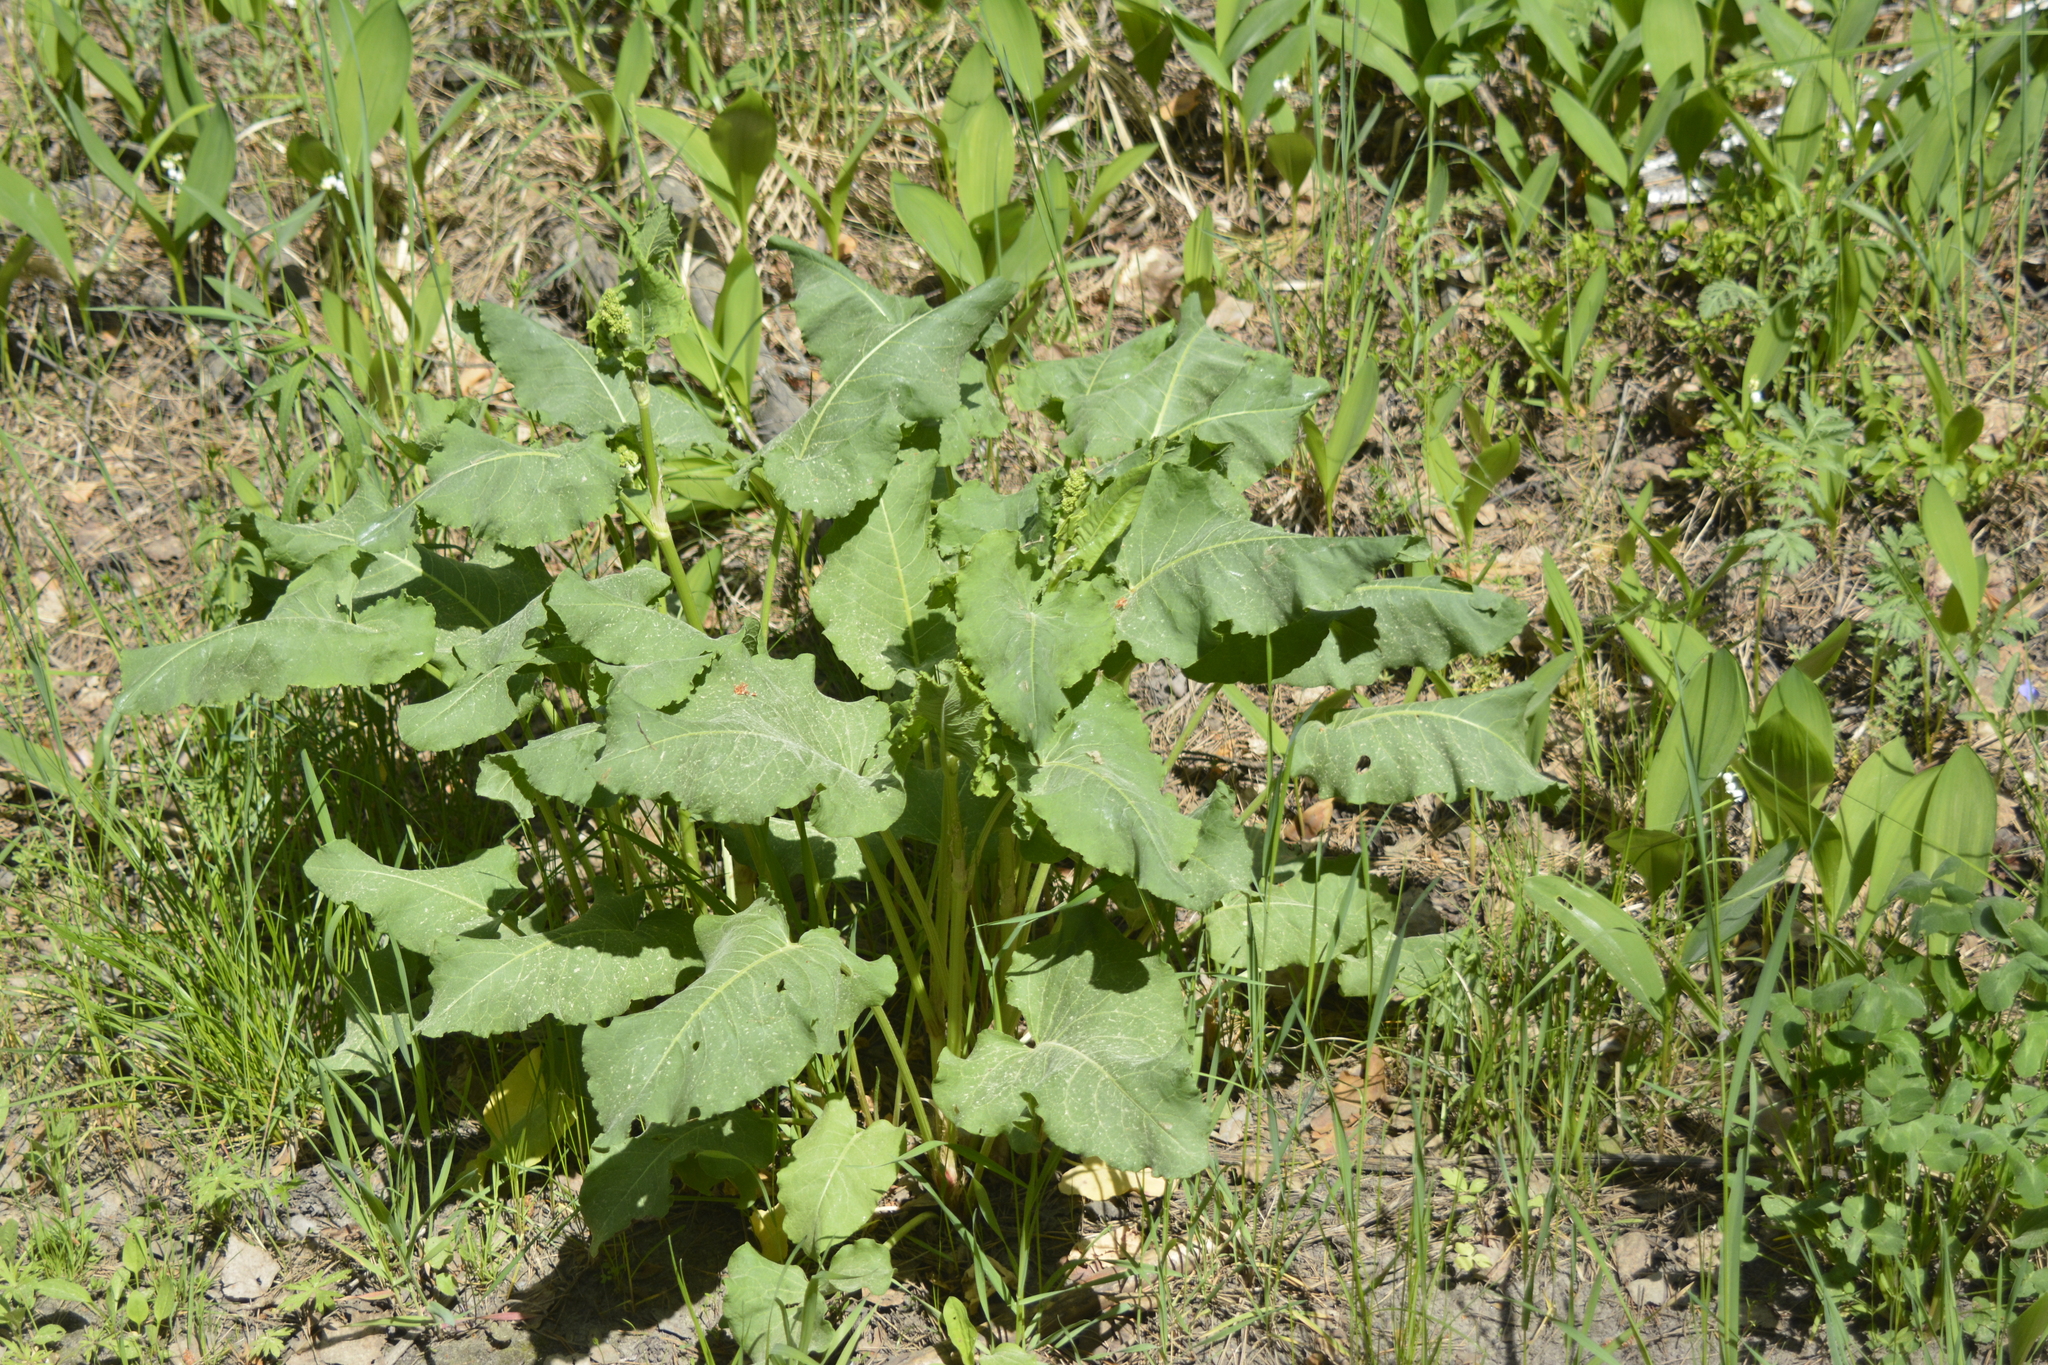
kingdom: Plantae
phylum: Tracheophyta
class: Magnoliopsida
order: Caryophyllales
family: Polygonaceae
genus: Rumex
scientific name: Rumex confertus
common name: Russian dock
